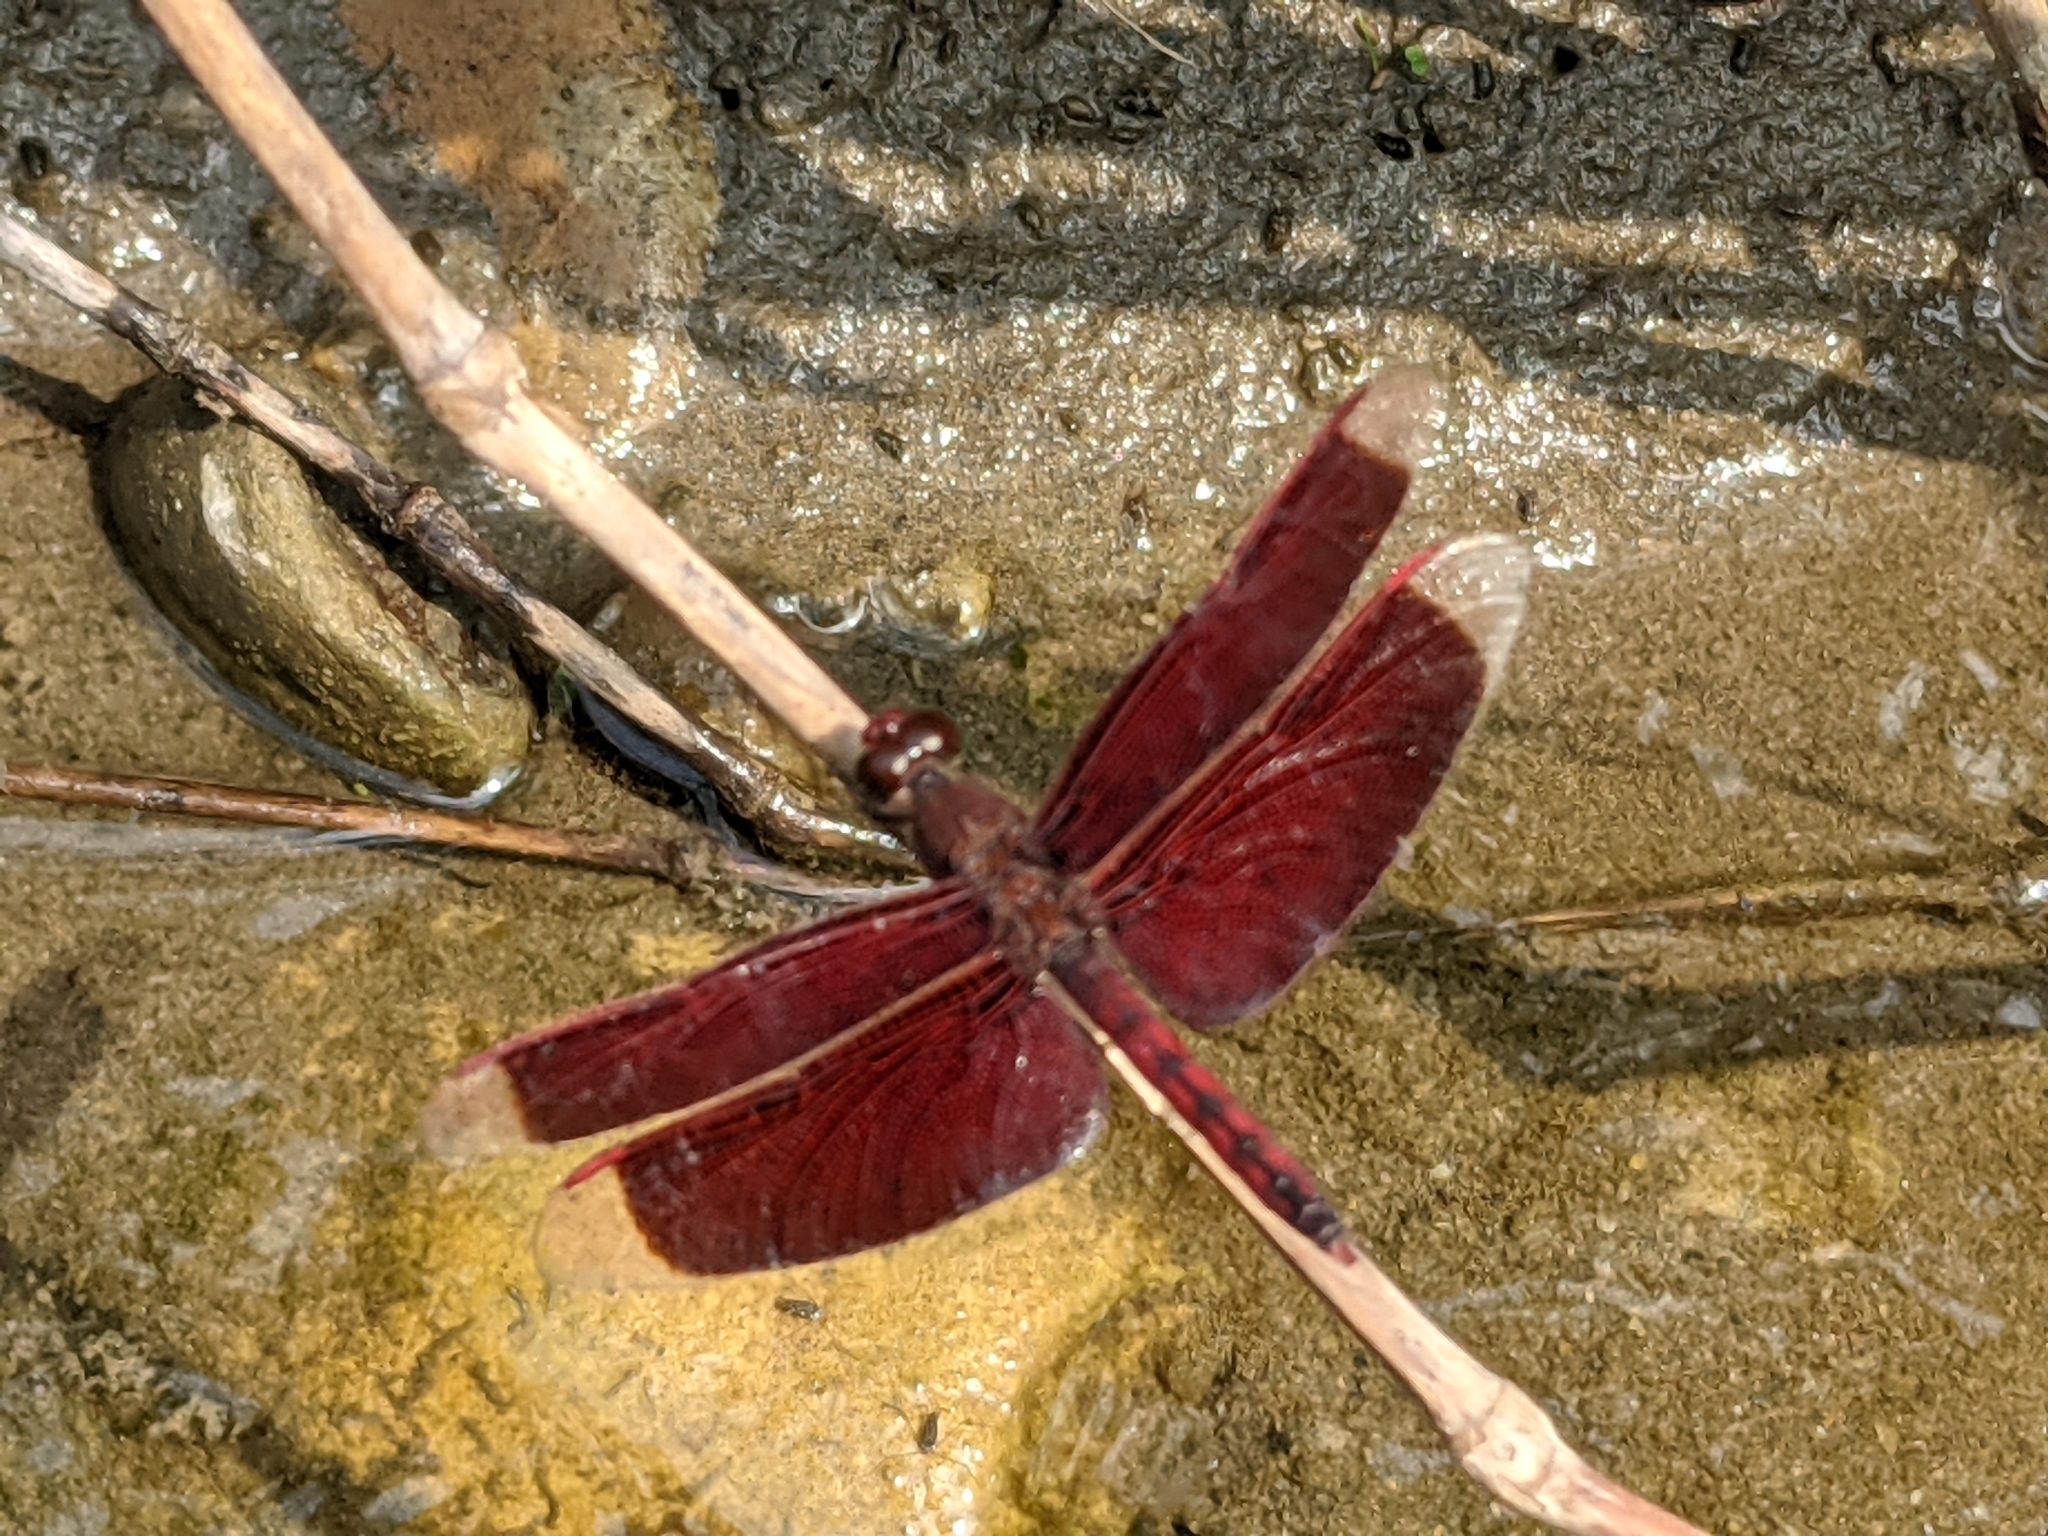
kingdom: Animalia
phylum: Arthropoda
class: Insecta
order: Odonata
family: Libellulidae
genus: Neurothemis
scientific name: Neurothemis taiwanensis
